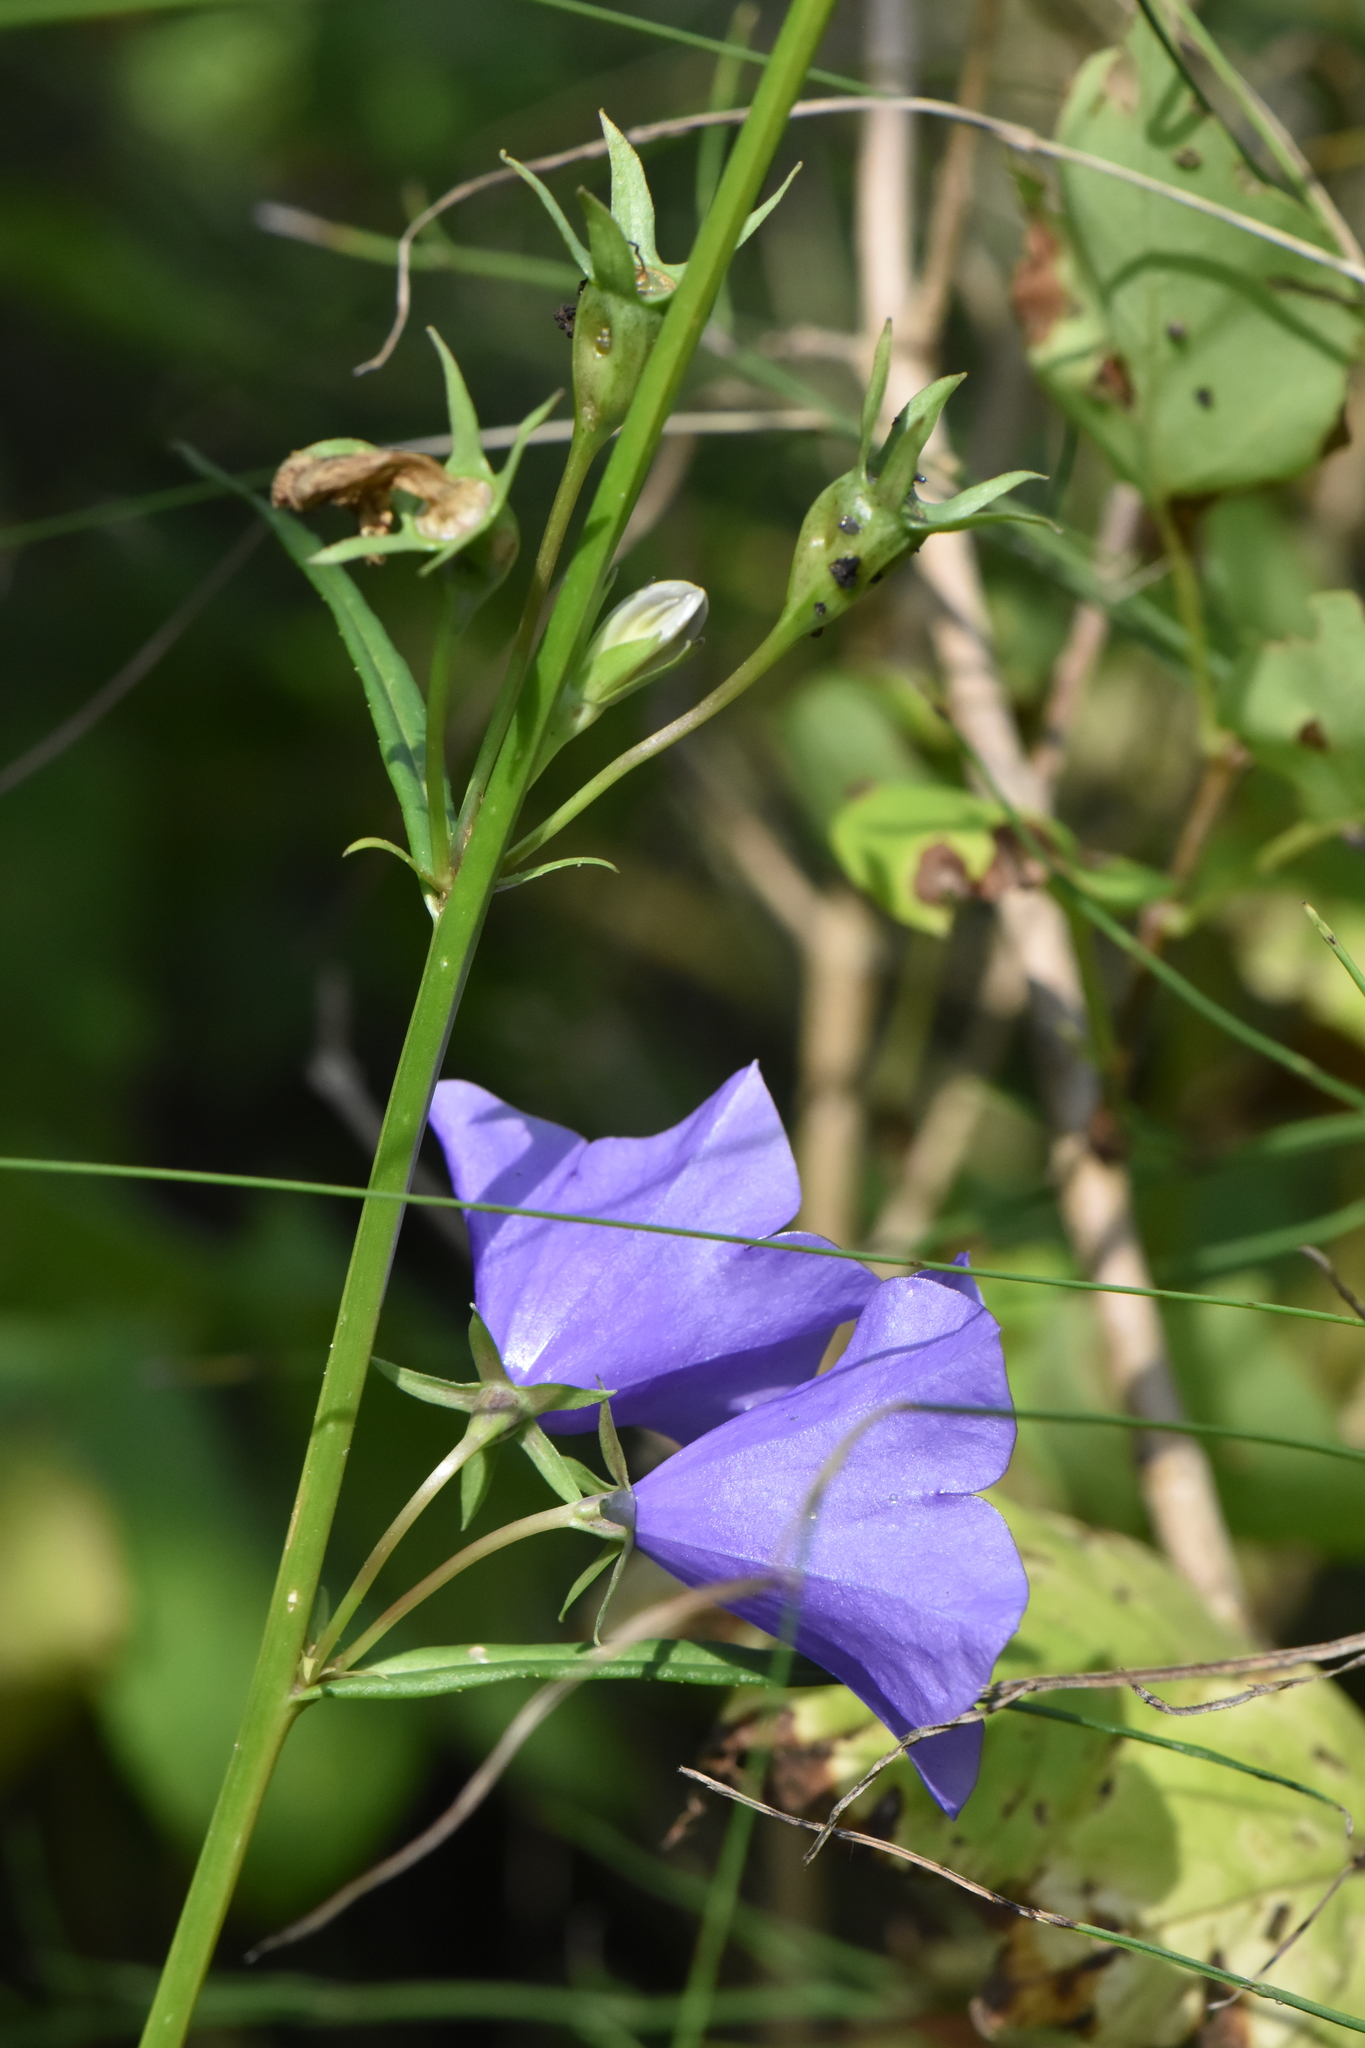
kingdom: Plantae
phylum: Tracheophyta
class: Magnoliopsida
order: Asterales
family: Campanulaceae
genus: Campanula
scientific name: Campanula persicifolia
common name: Peach-leaved bellflower
